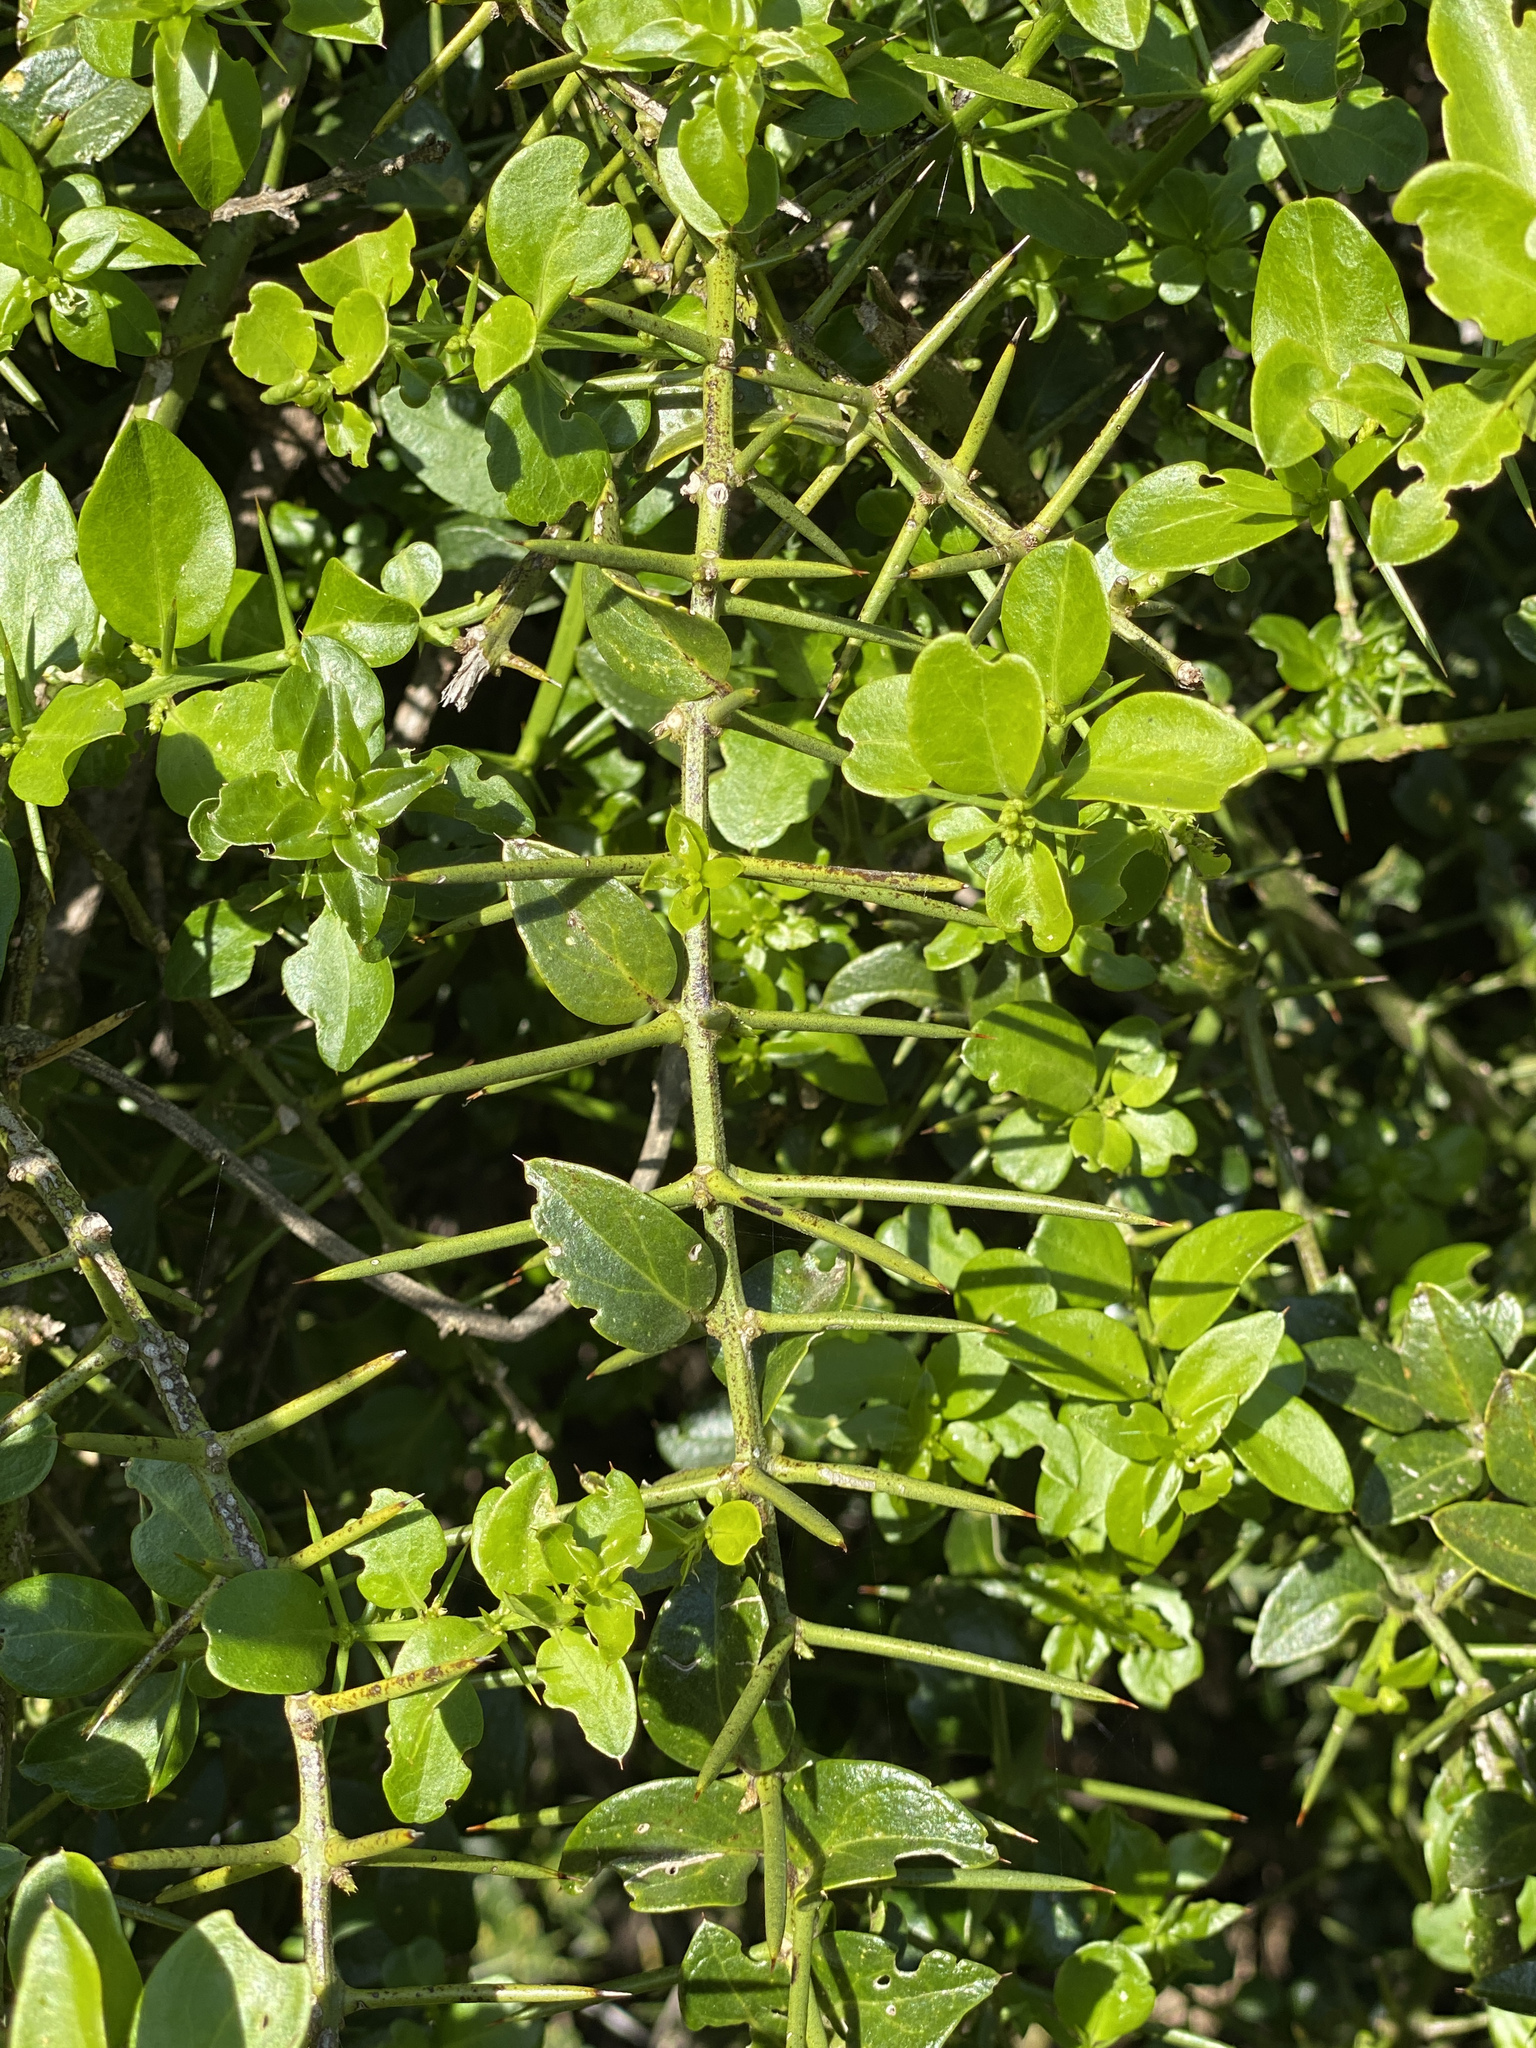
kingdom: Plantae
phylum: Tracheophyta
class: Magnoliopsida
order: Brassicales
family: Salvadoraceae
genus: Azima
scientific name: Azima tetracantha
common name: Needle bush
